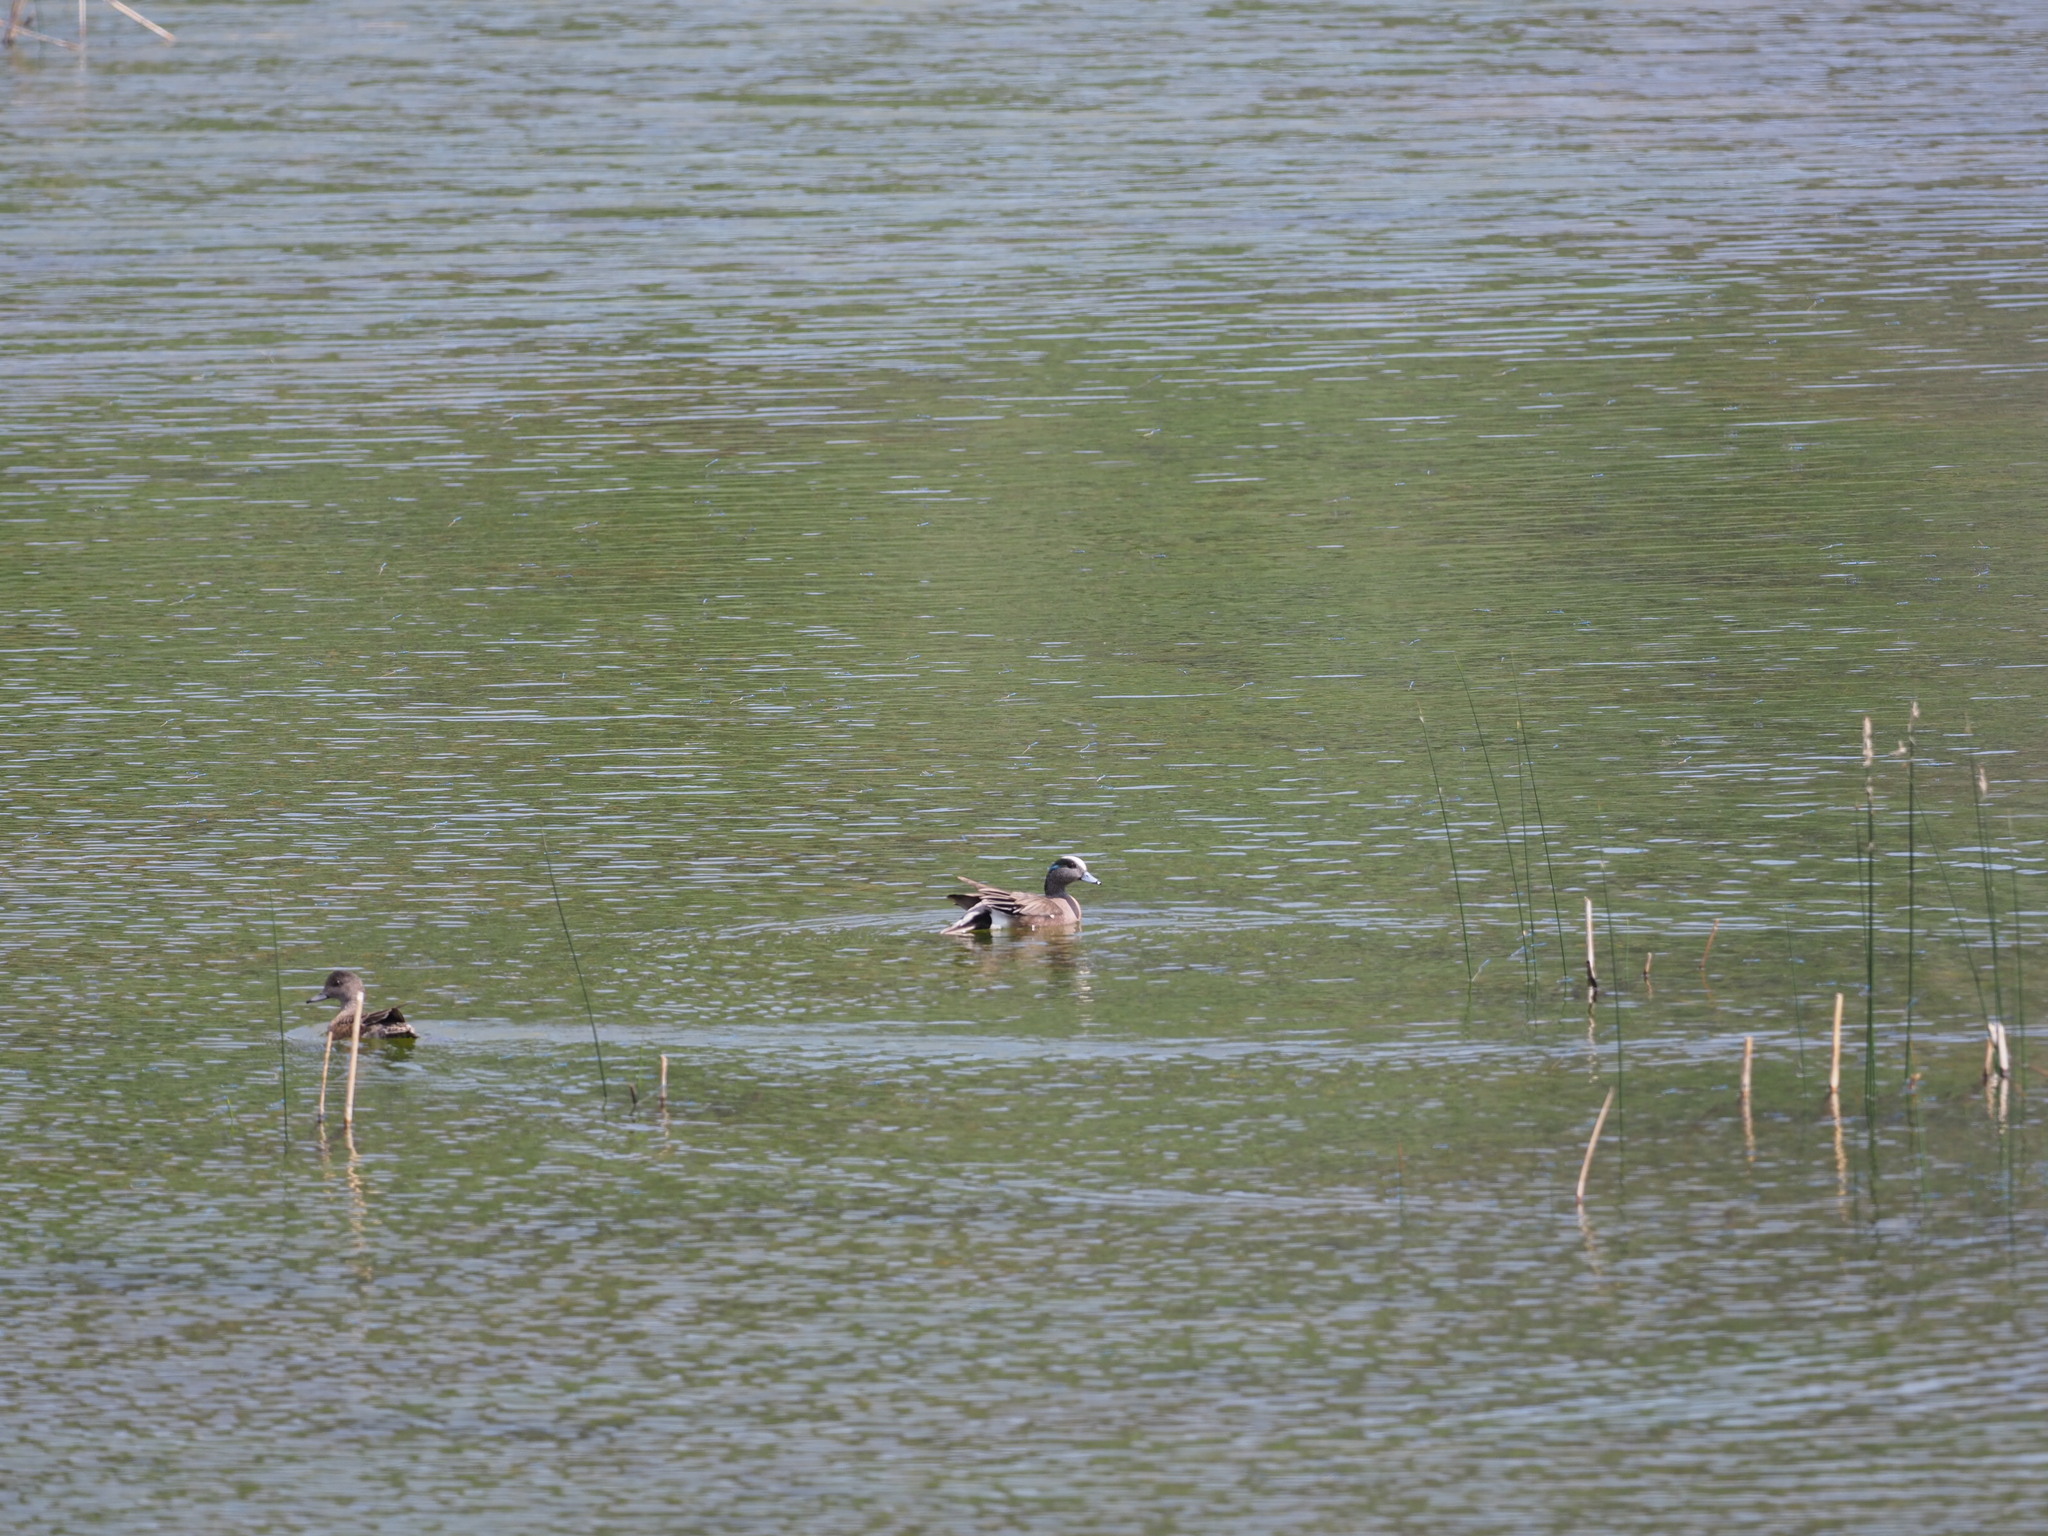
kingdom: Animalia
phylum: Chordata
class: Aves
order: Anseriformes
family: Anatidae
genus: Mareca
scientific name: Mareca americana
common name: American wigeon
